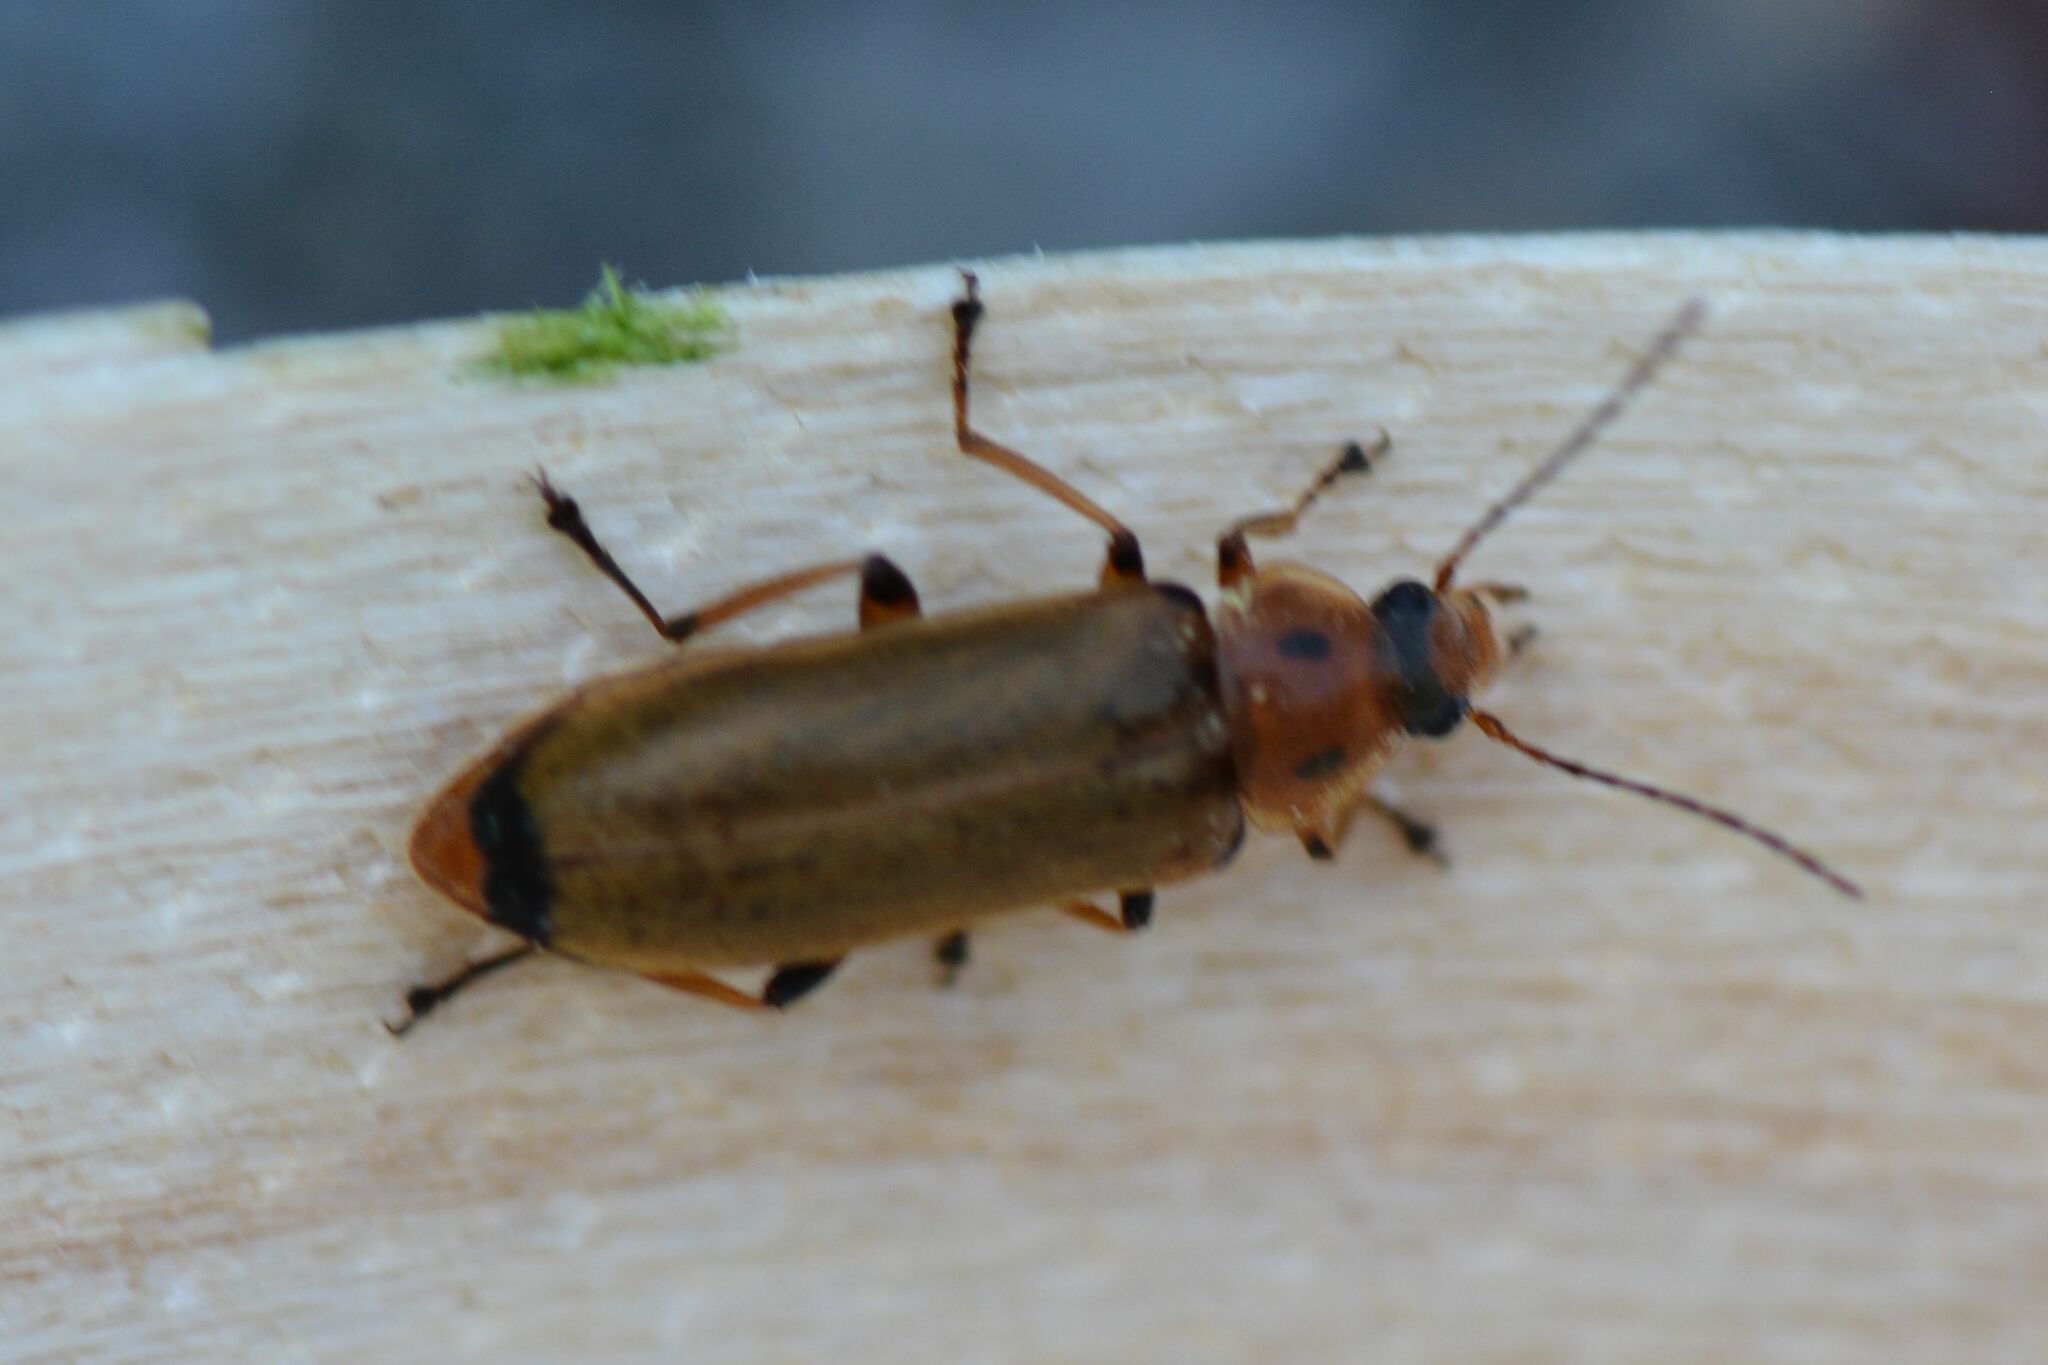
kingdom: Animalia
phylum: Arthropoda
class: Insecta
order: Coleoptera
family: Melandryidae
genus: Osphya
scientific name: Osphya bipunctata
